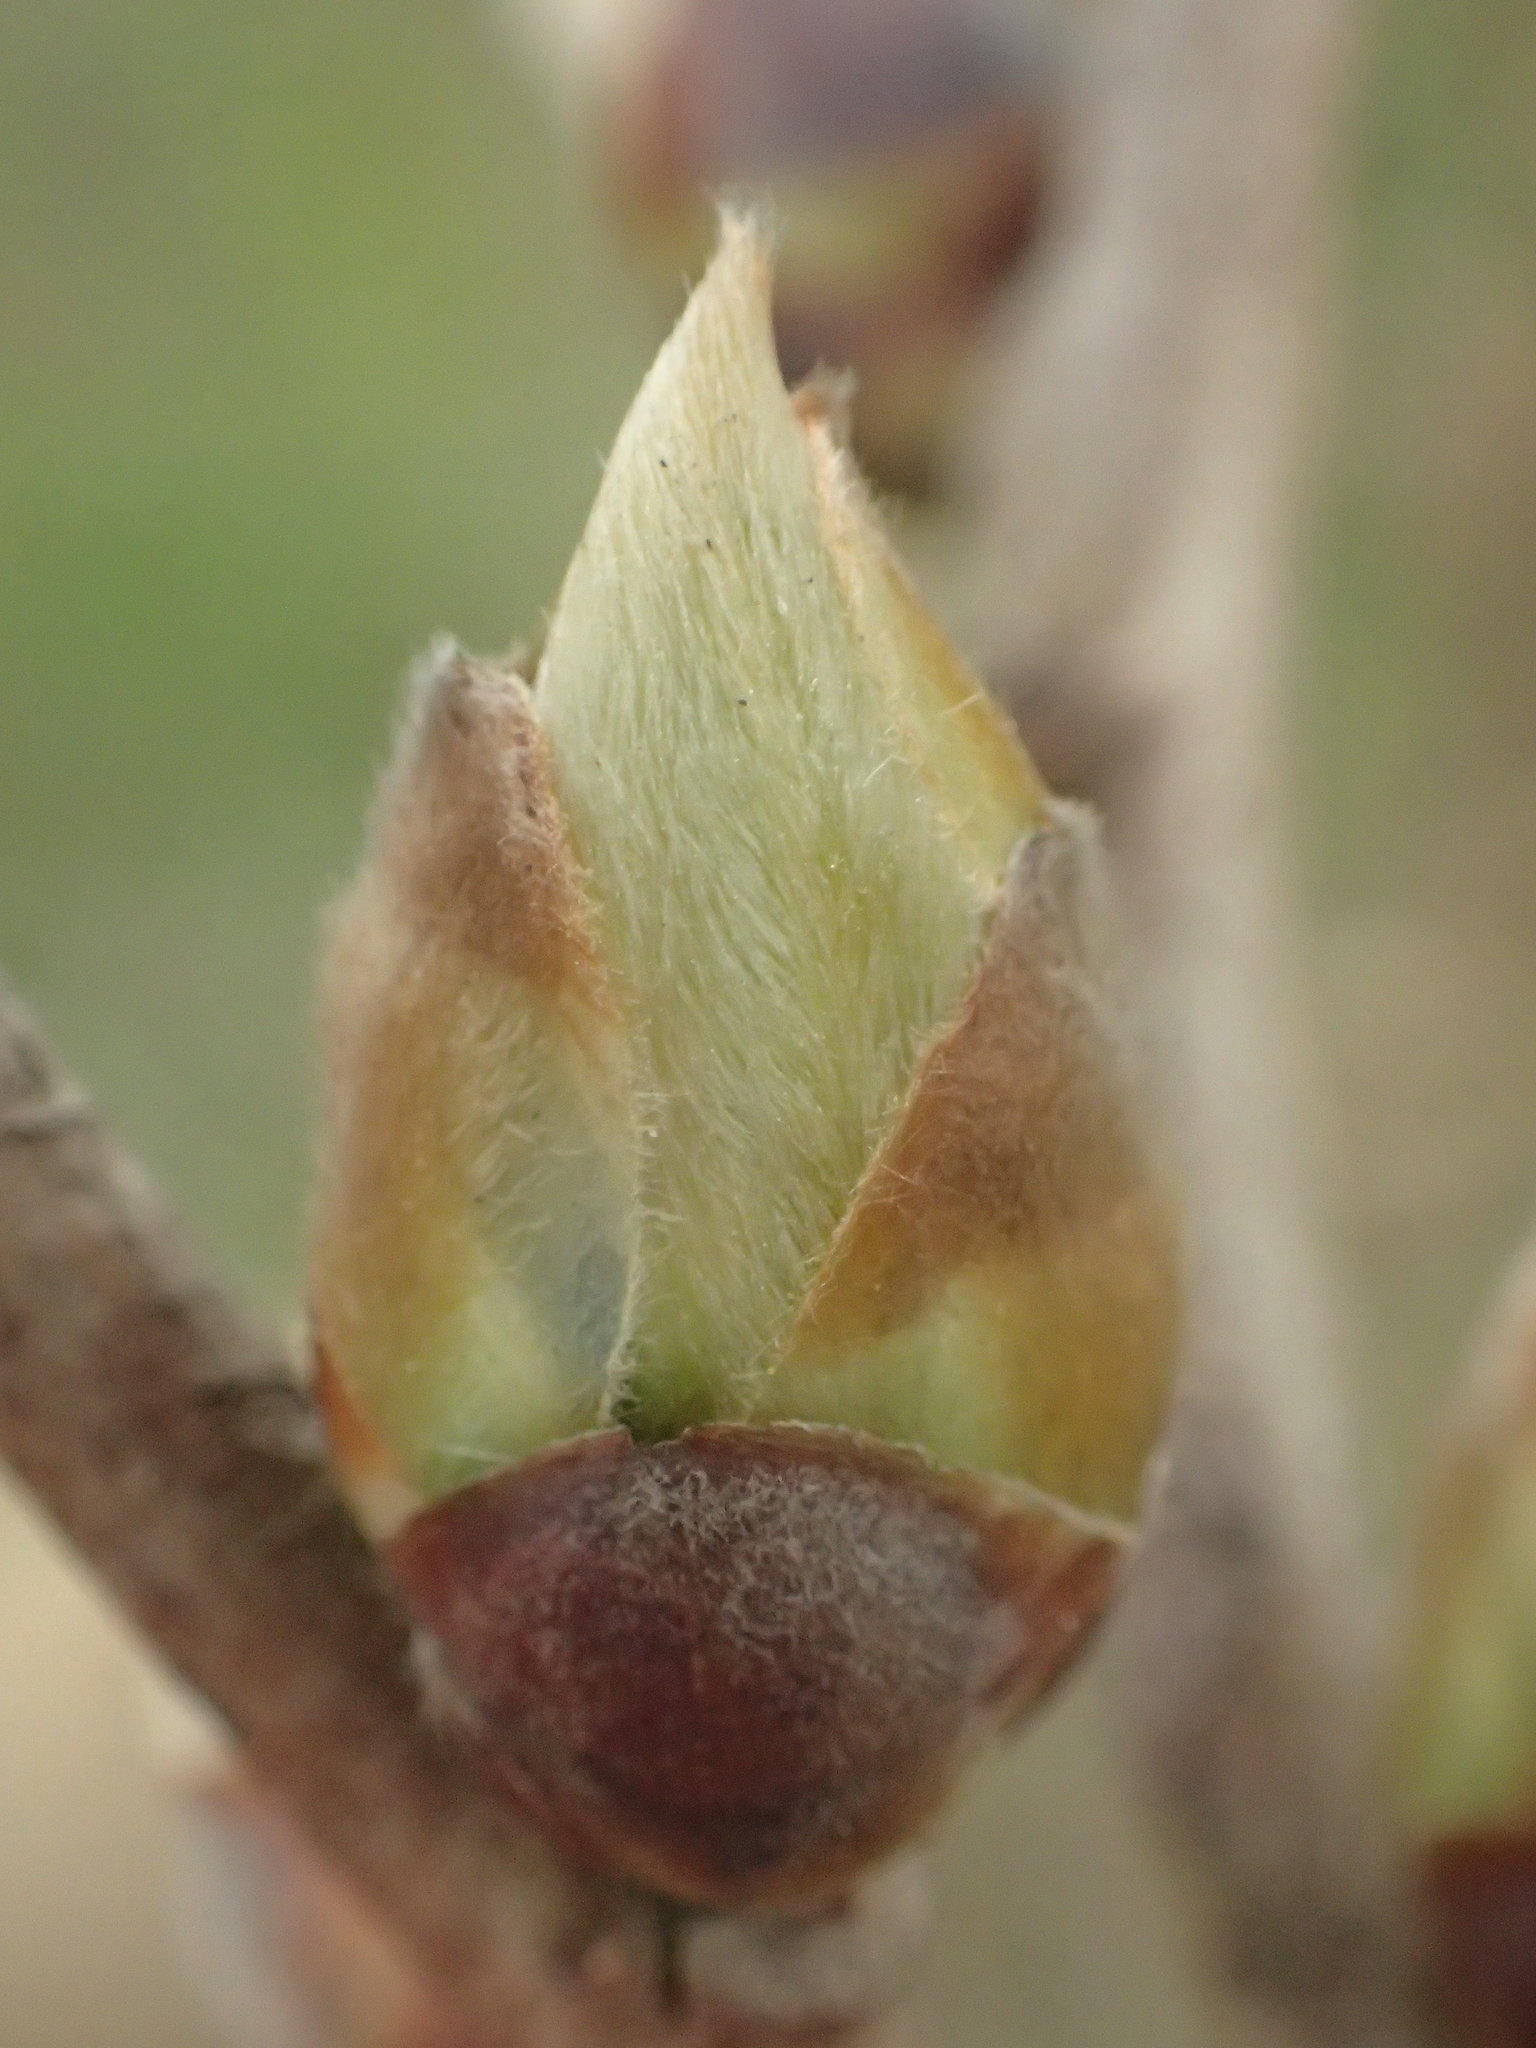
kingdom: Plantae
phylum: Tracheophyta
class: Magnoliopsida
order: Laurales
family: Lauraceae
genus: Lindera
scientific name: Lindera glauca
